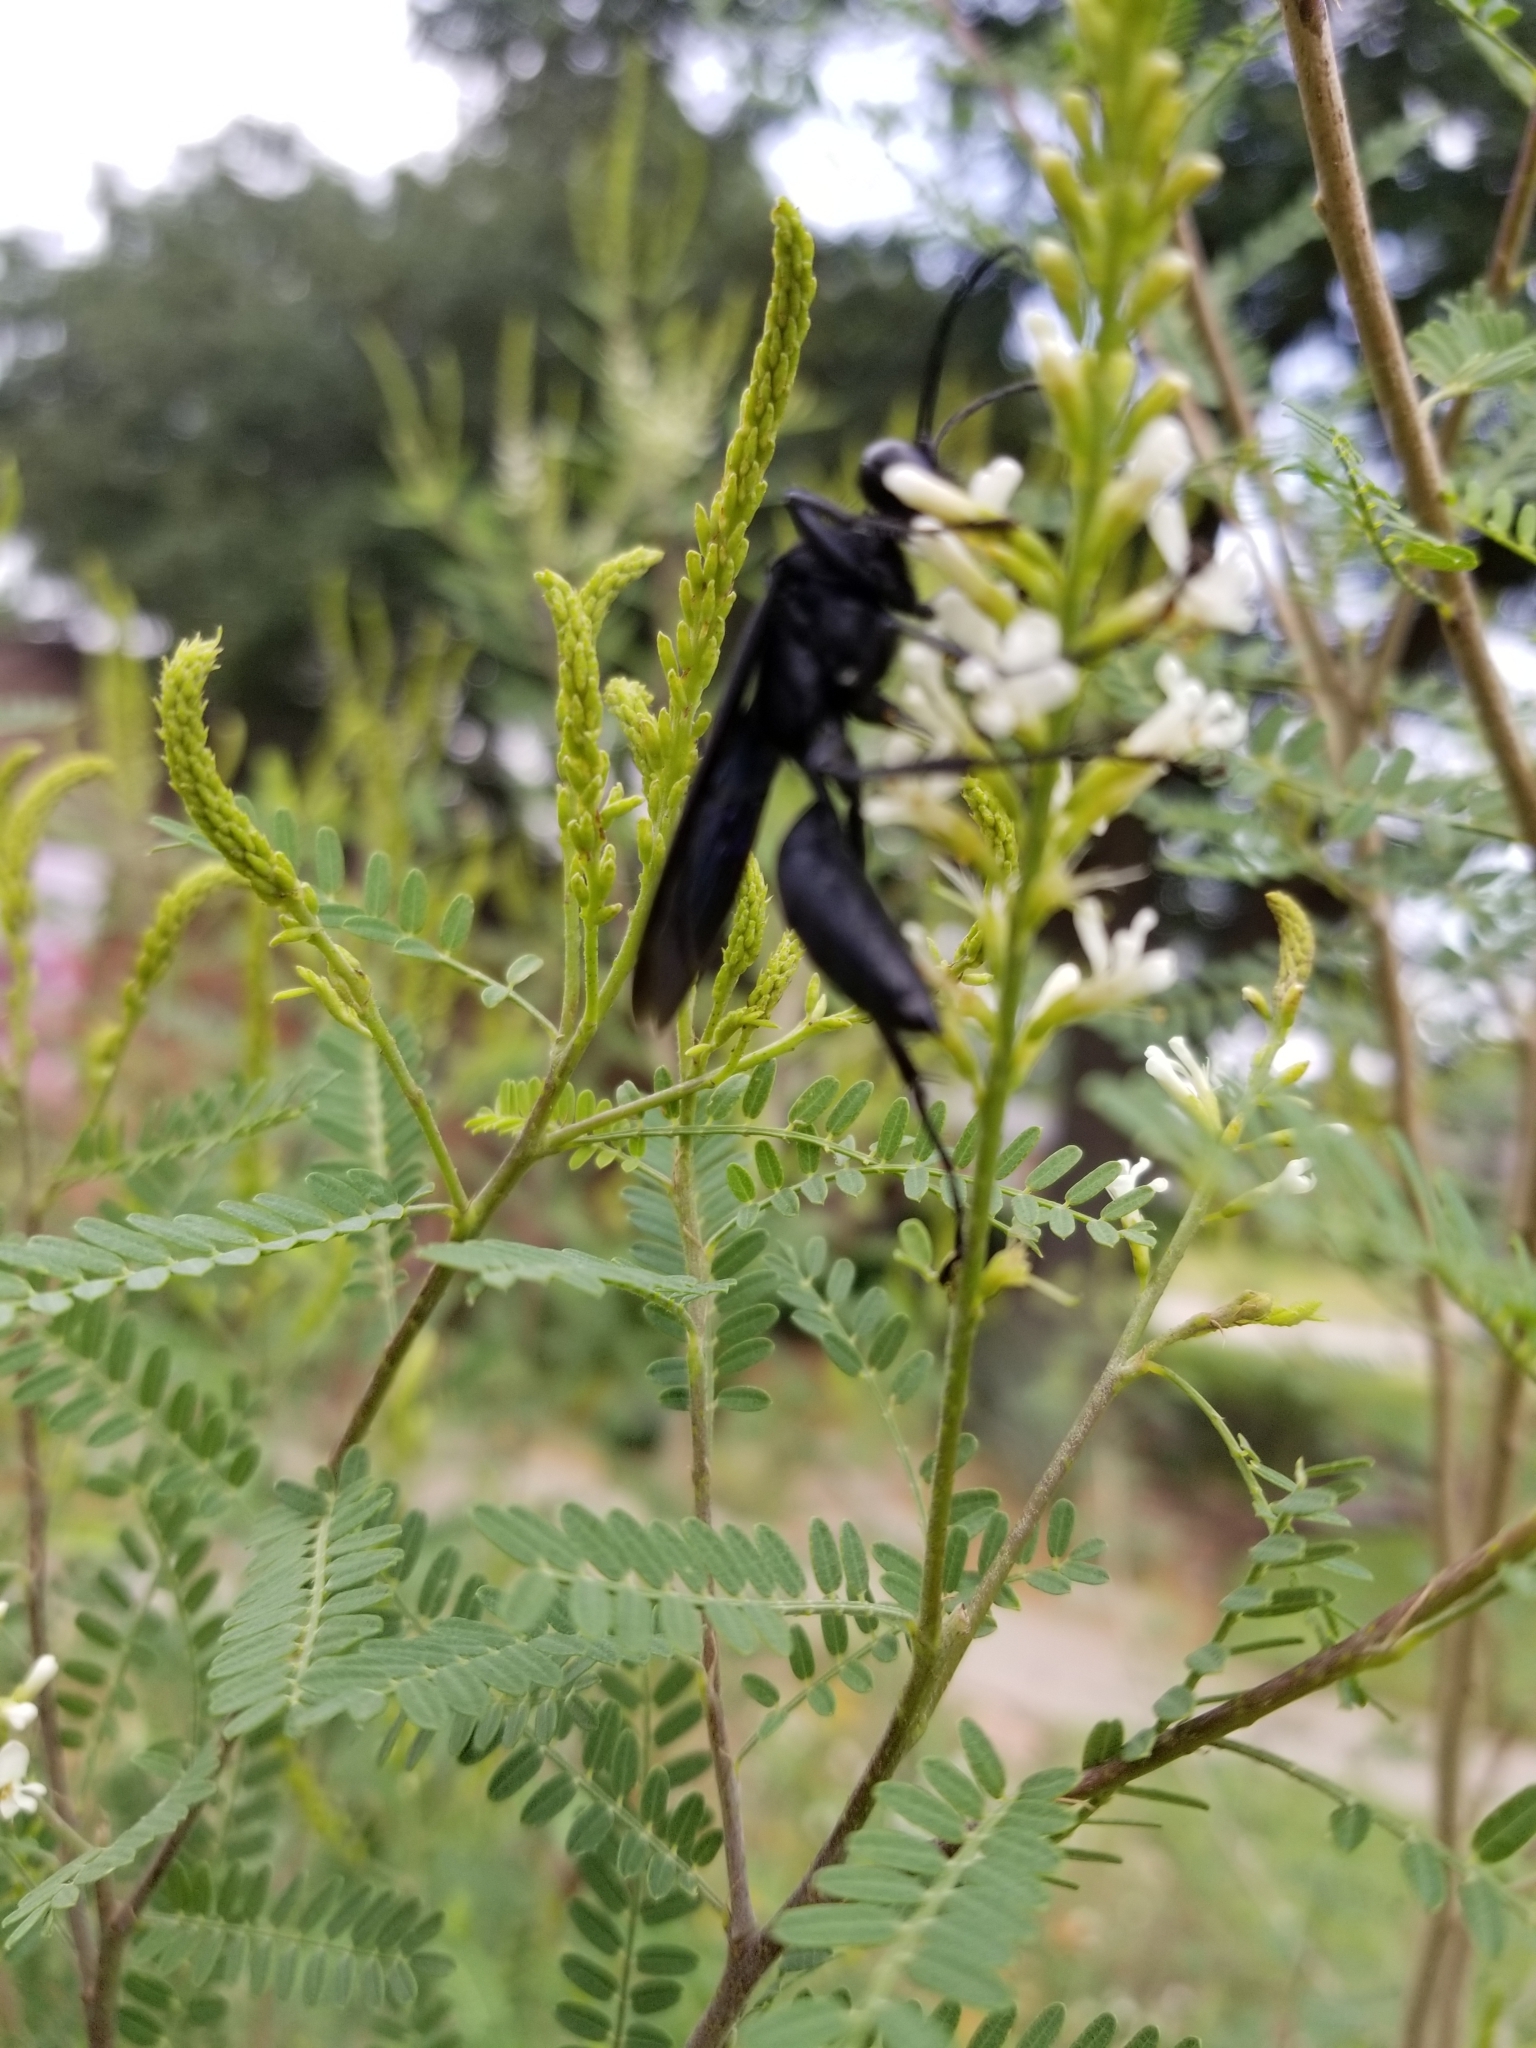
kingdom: Animalia
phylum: Arthropoda
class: Insecta
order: Hymenoptera
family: Sphecidae
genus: Sphex
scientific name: Sphex pensylvanicus
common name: Great black digger wasp
